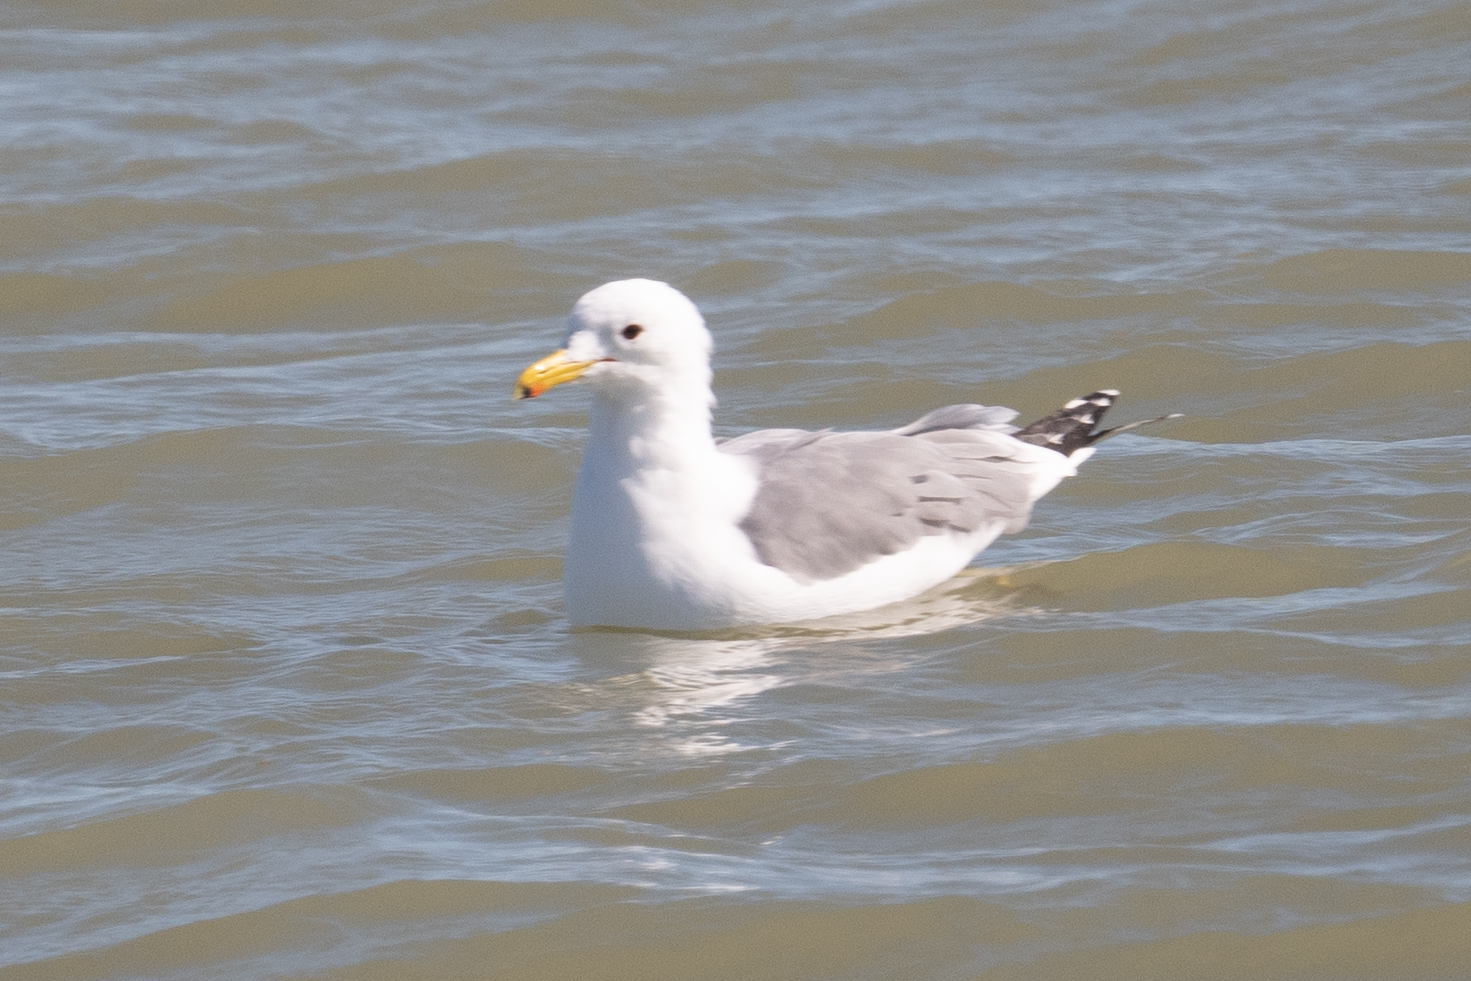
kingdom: Animalia
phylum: Chordata
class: Aves
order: Charadriiformes
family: Laridae
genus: Larus
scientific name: Larus californicus
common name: California gull
